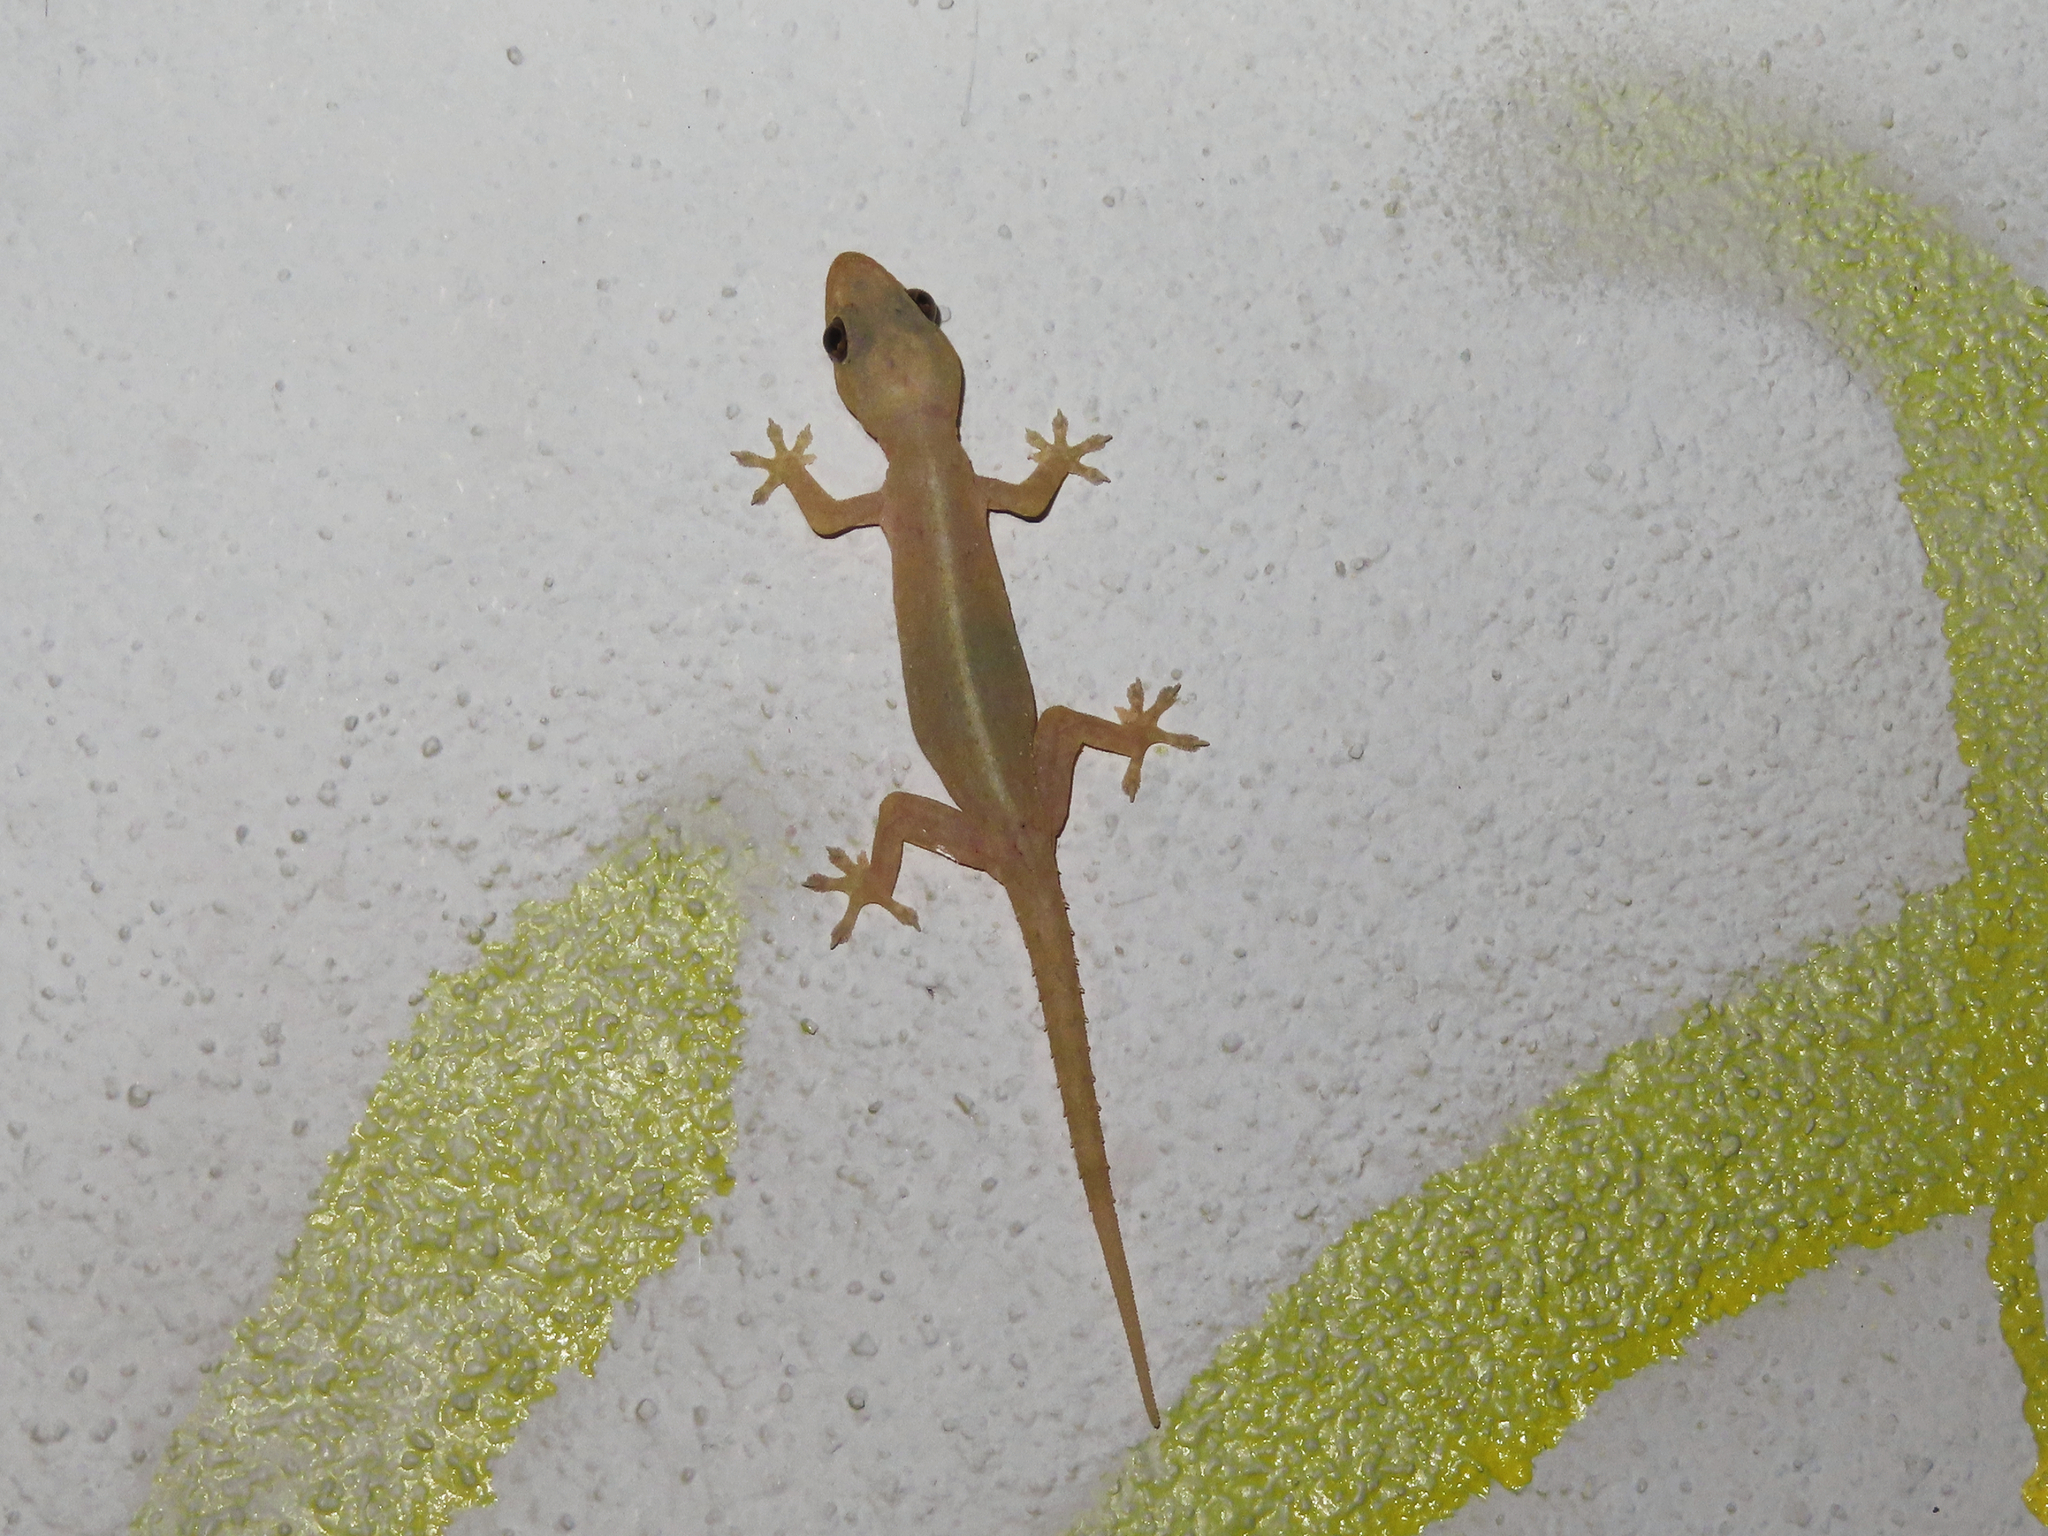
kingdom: Animalia
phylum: Chordata
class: Squamata
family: Gekkonidae
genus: Hemidactylus
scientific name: Hemidactylus frenatus
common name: Common house gecko
